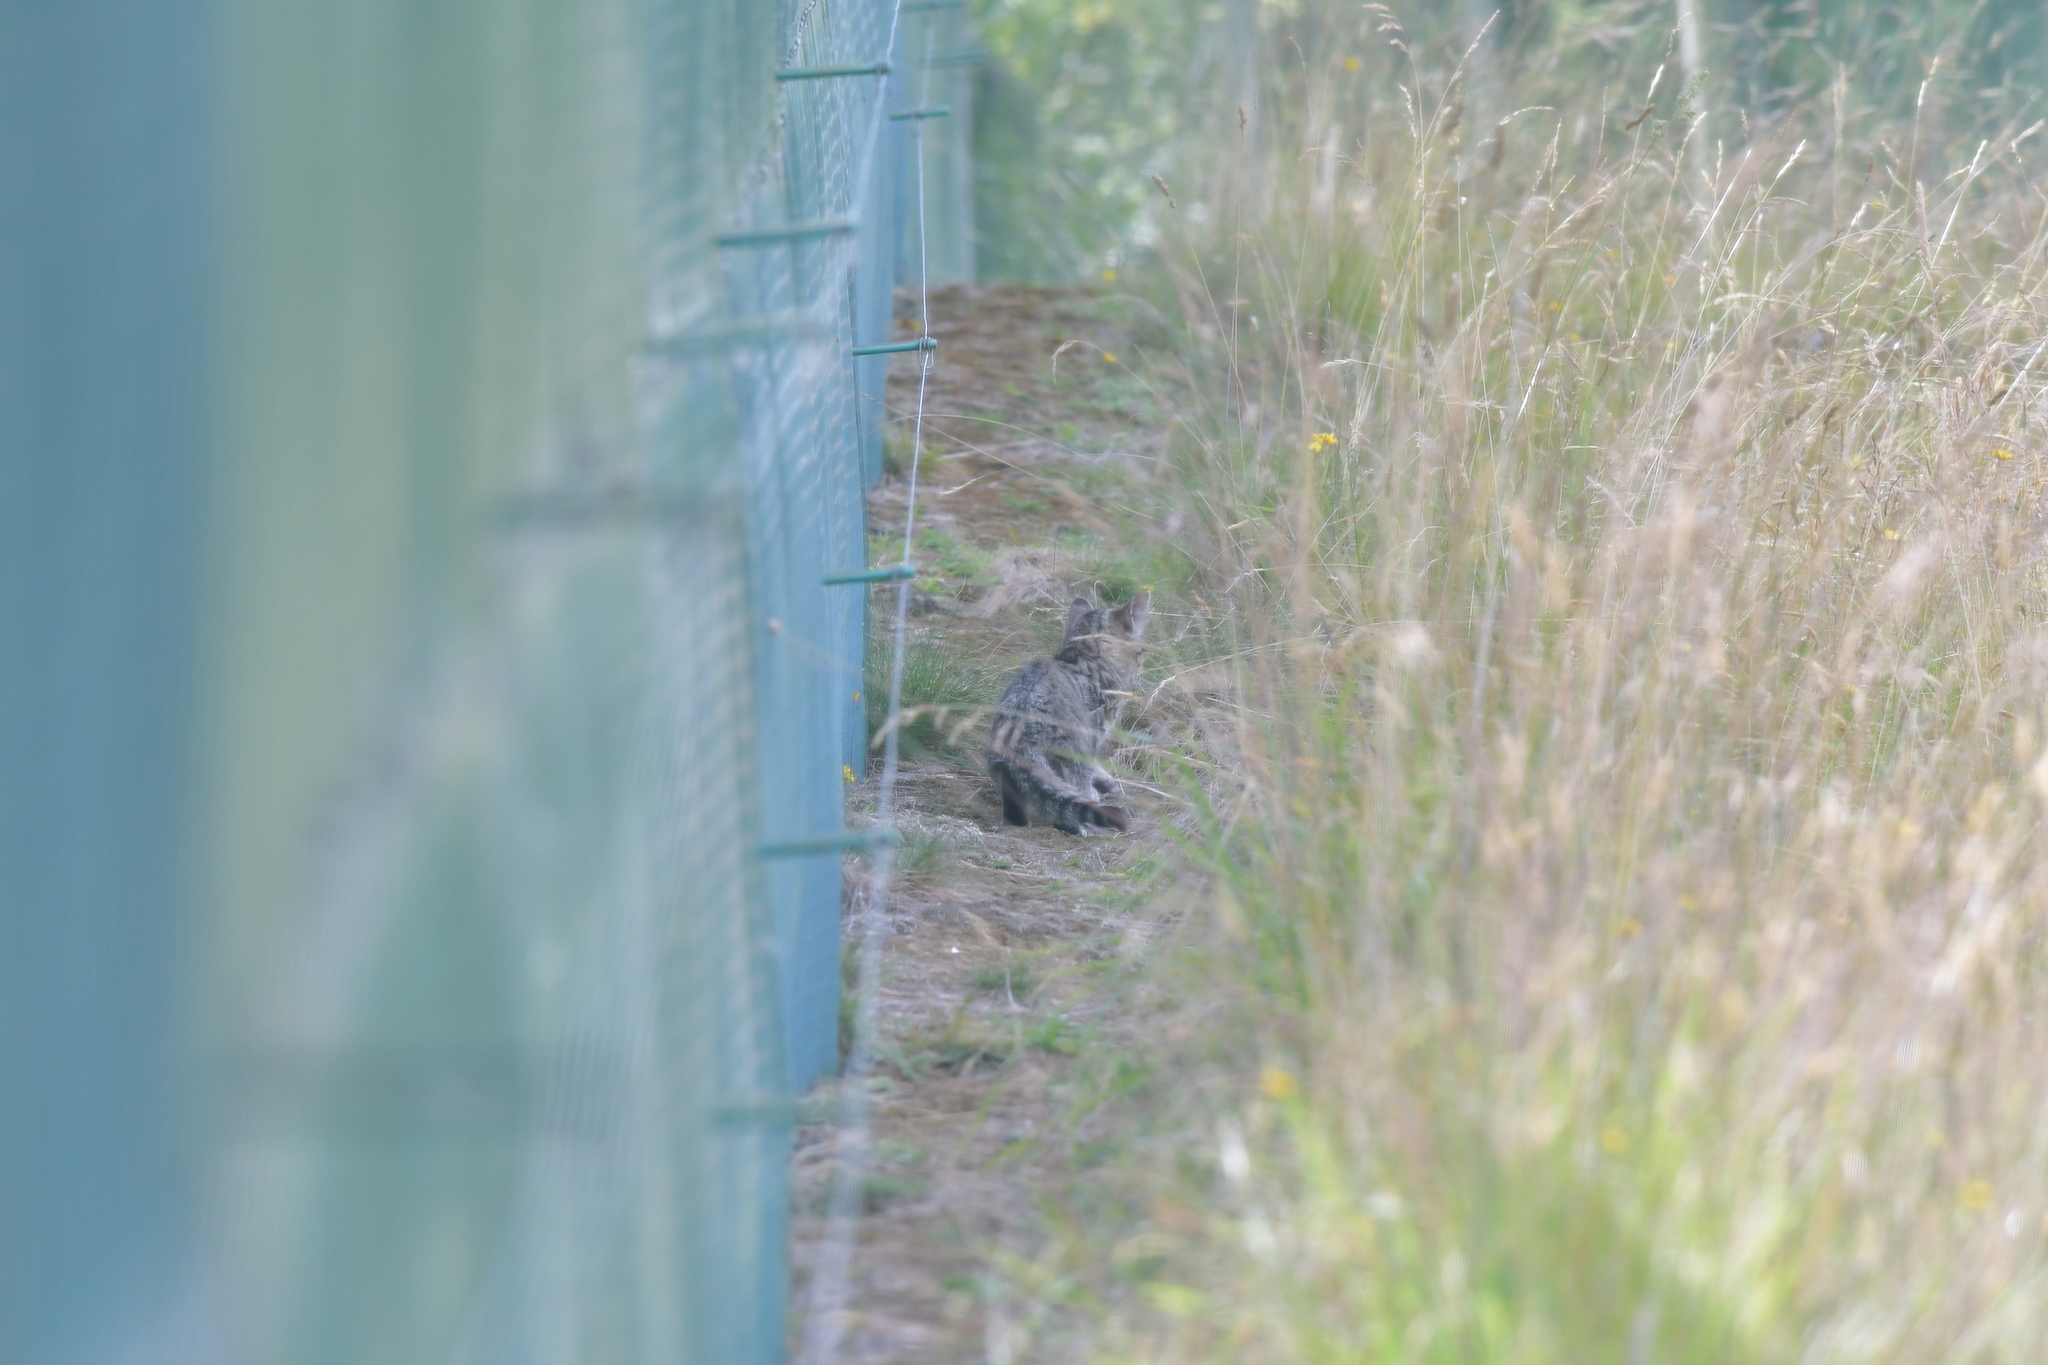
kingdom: Animalia
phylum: Chordata
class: Mammalia
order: Carnivora
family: Felidae
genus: Felis
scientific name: Felis catus
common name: Domestic cat
